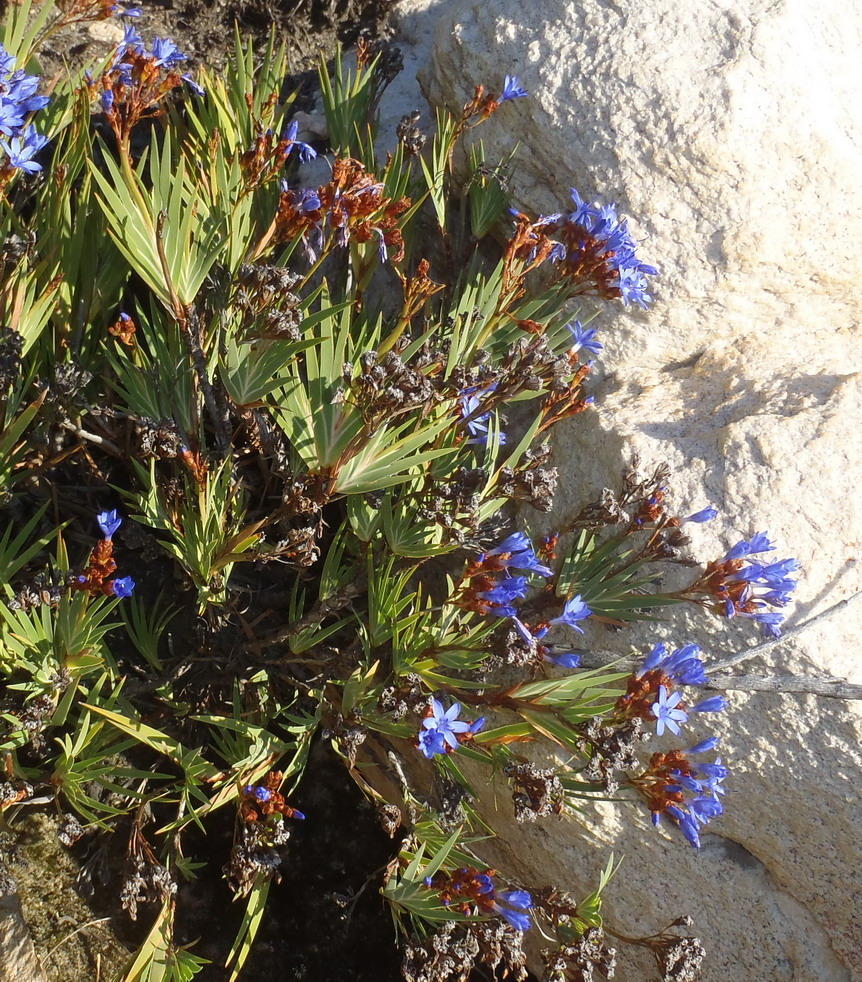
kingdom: Plantae
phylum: Tracheophyta
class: Liliopsida
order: Asparagales
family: Iridaceae
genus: Nivenia
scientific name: Nivenia binata
